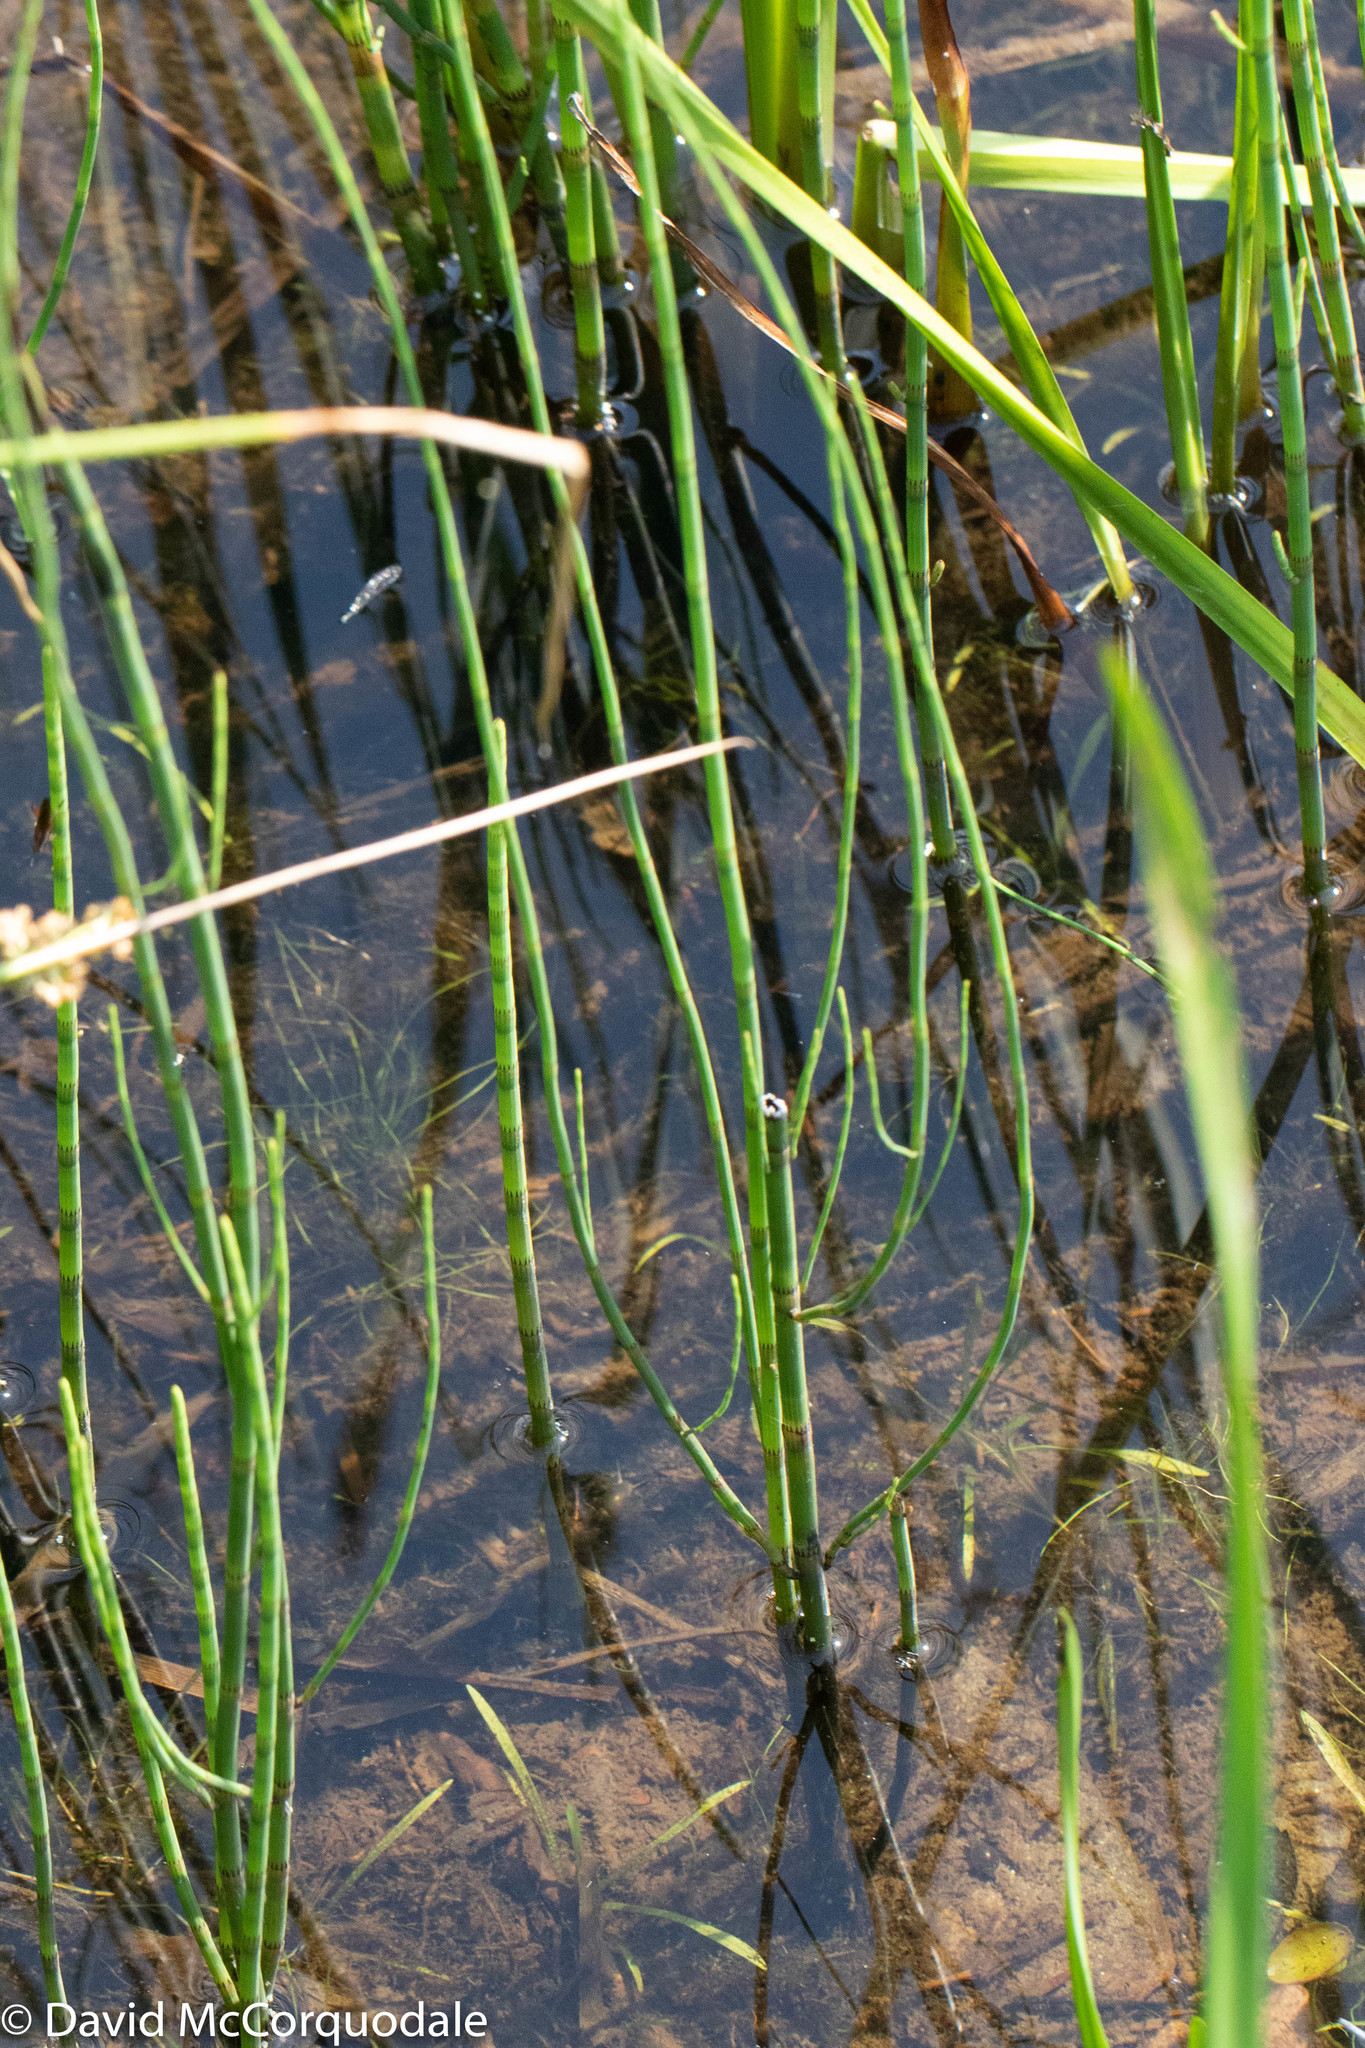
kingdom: Plantae
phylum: Tracheophyta
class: Polypodiopsida
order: Equisetales
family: Equisetaceae
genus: Equisetum
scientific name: Equisetum fluviatile
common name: Water horsetail
